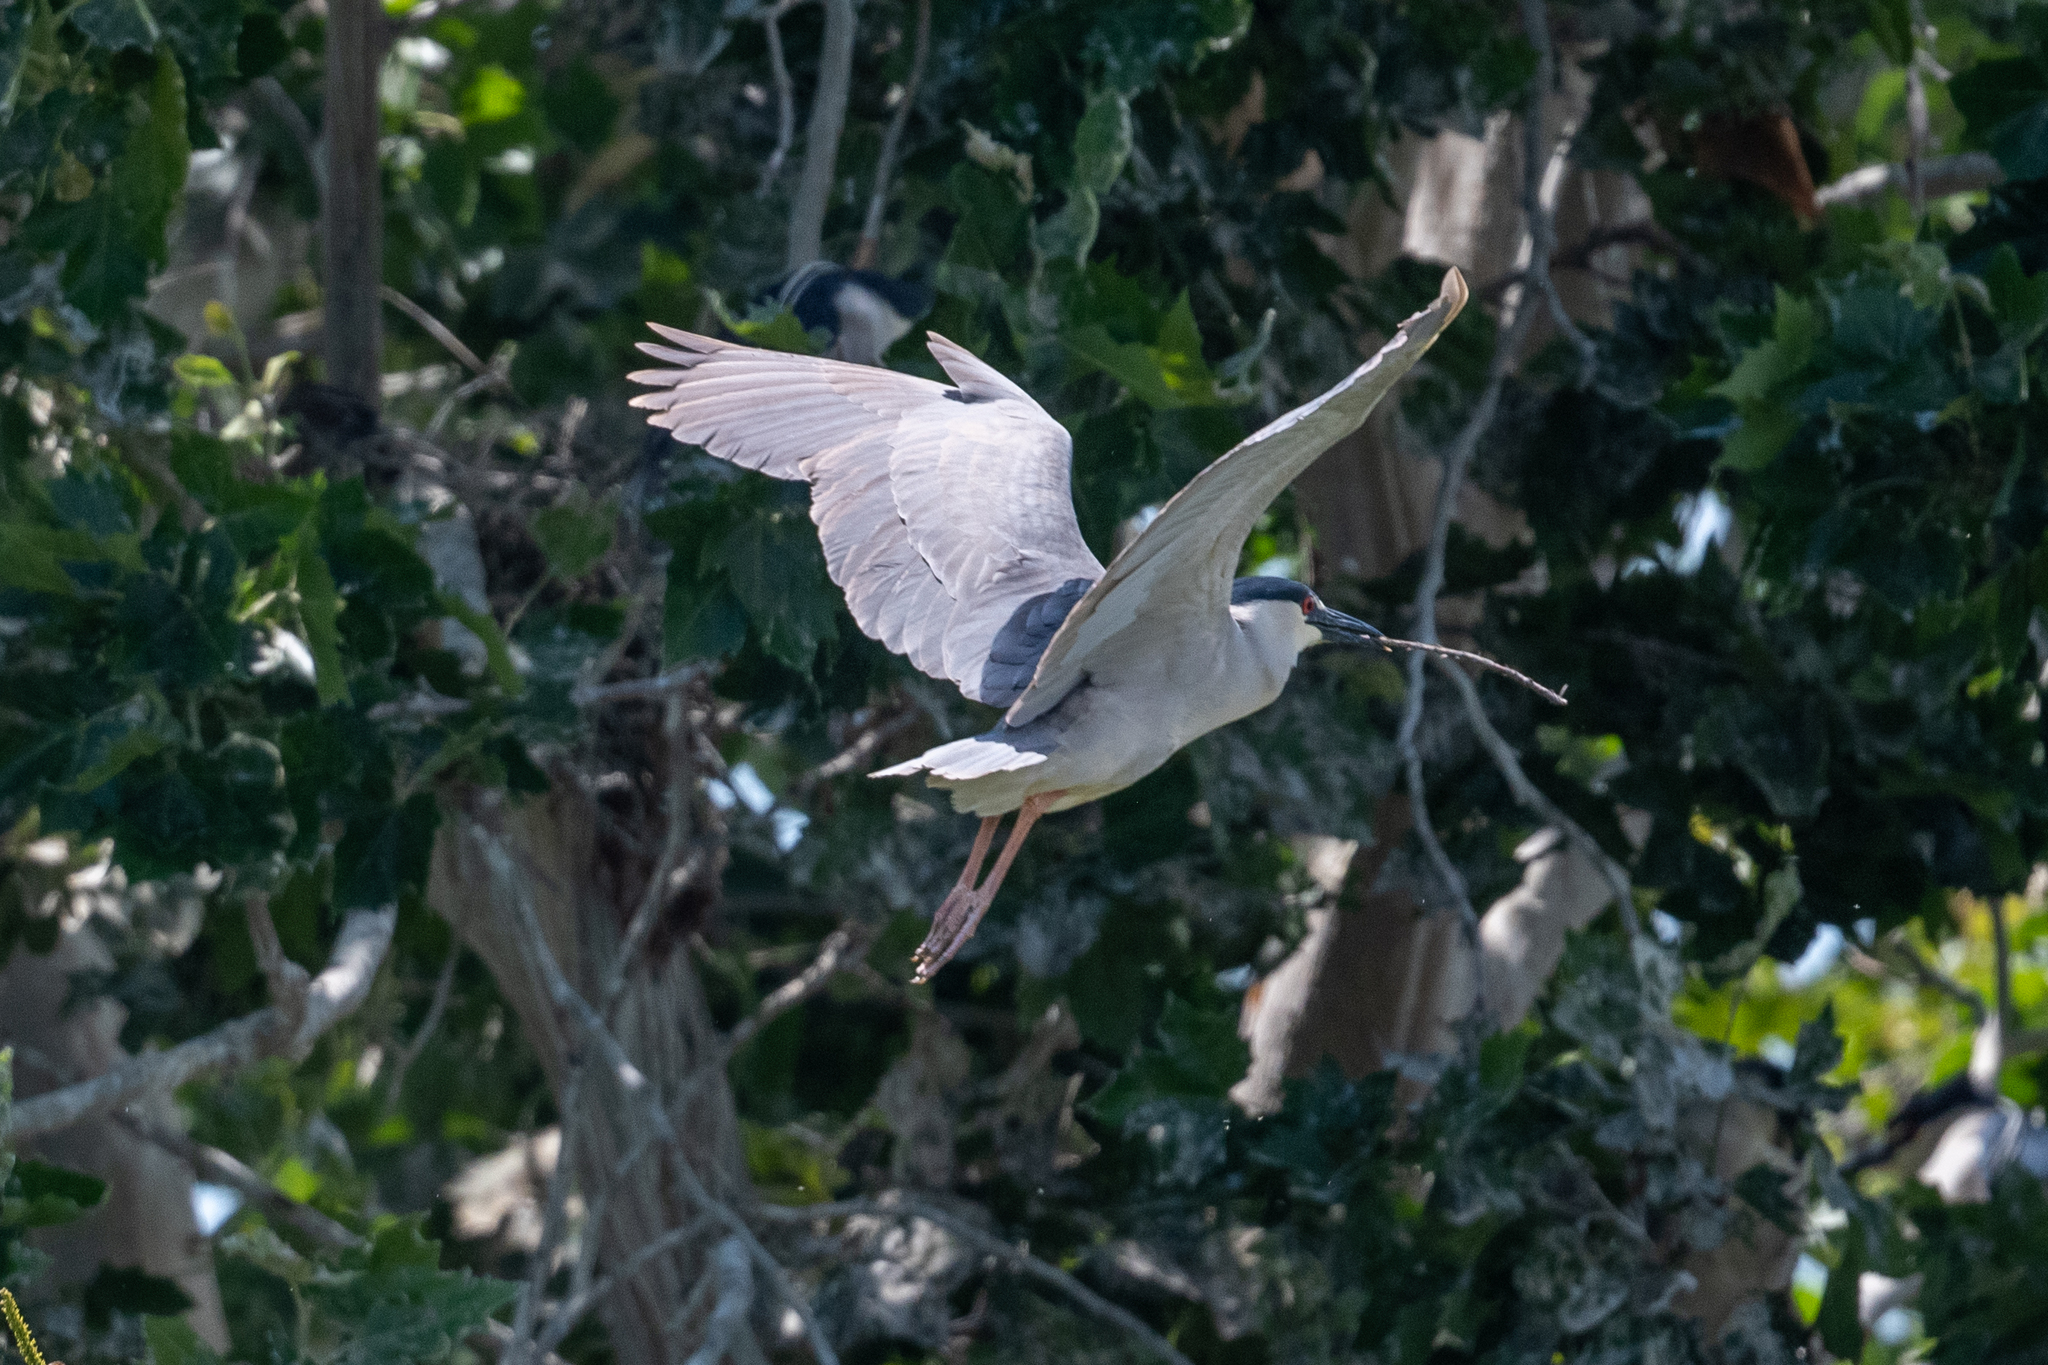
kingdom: Animalia
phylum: Chordata
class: Aves
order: Pelecaniformes
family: Ardeidae
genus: Nycticorax
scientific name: Nycticorax nycticorax
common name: Black-crowned night heron
